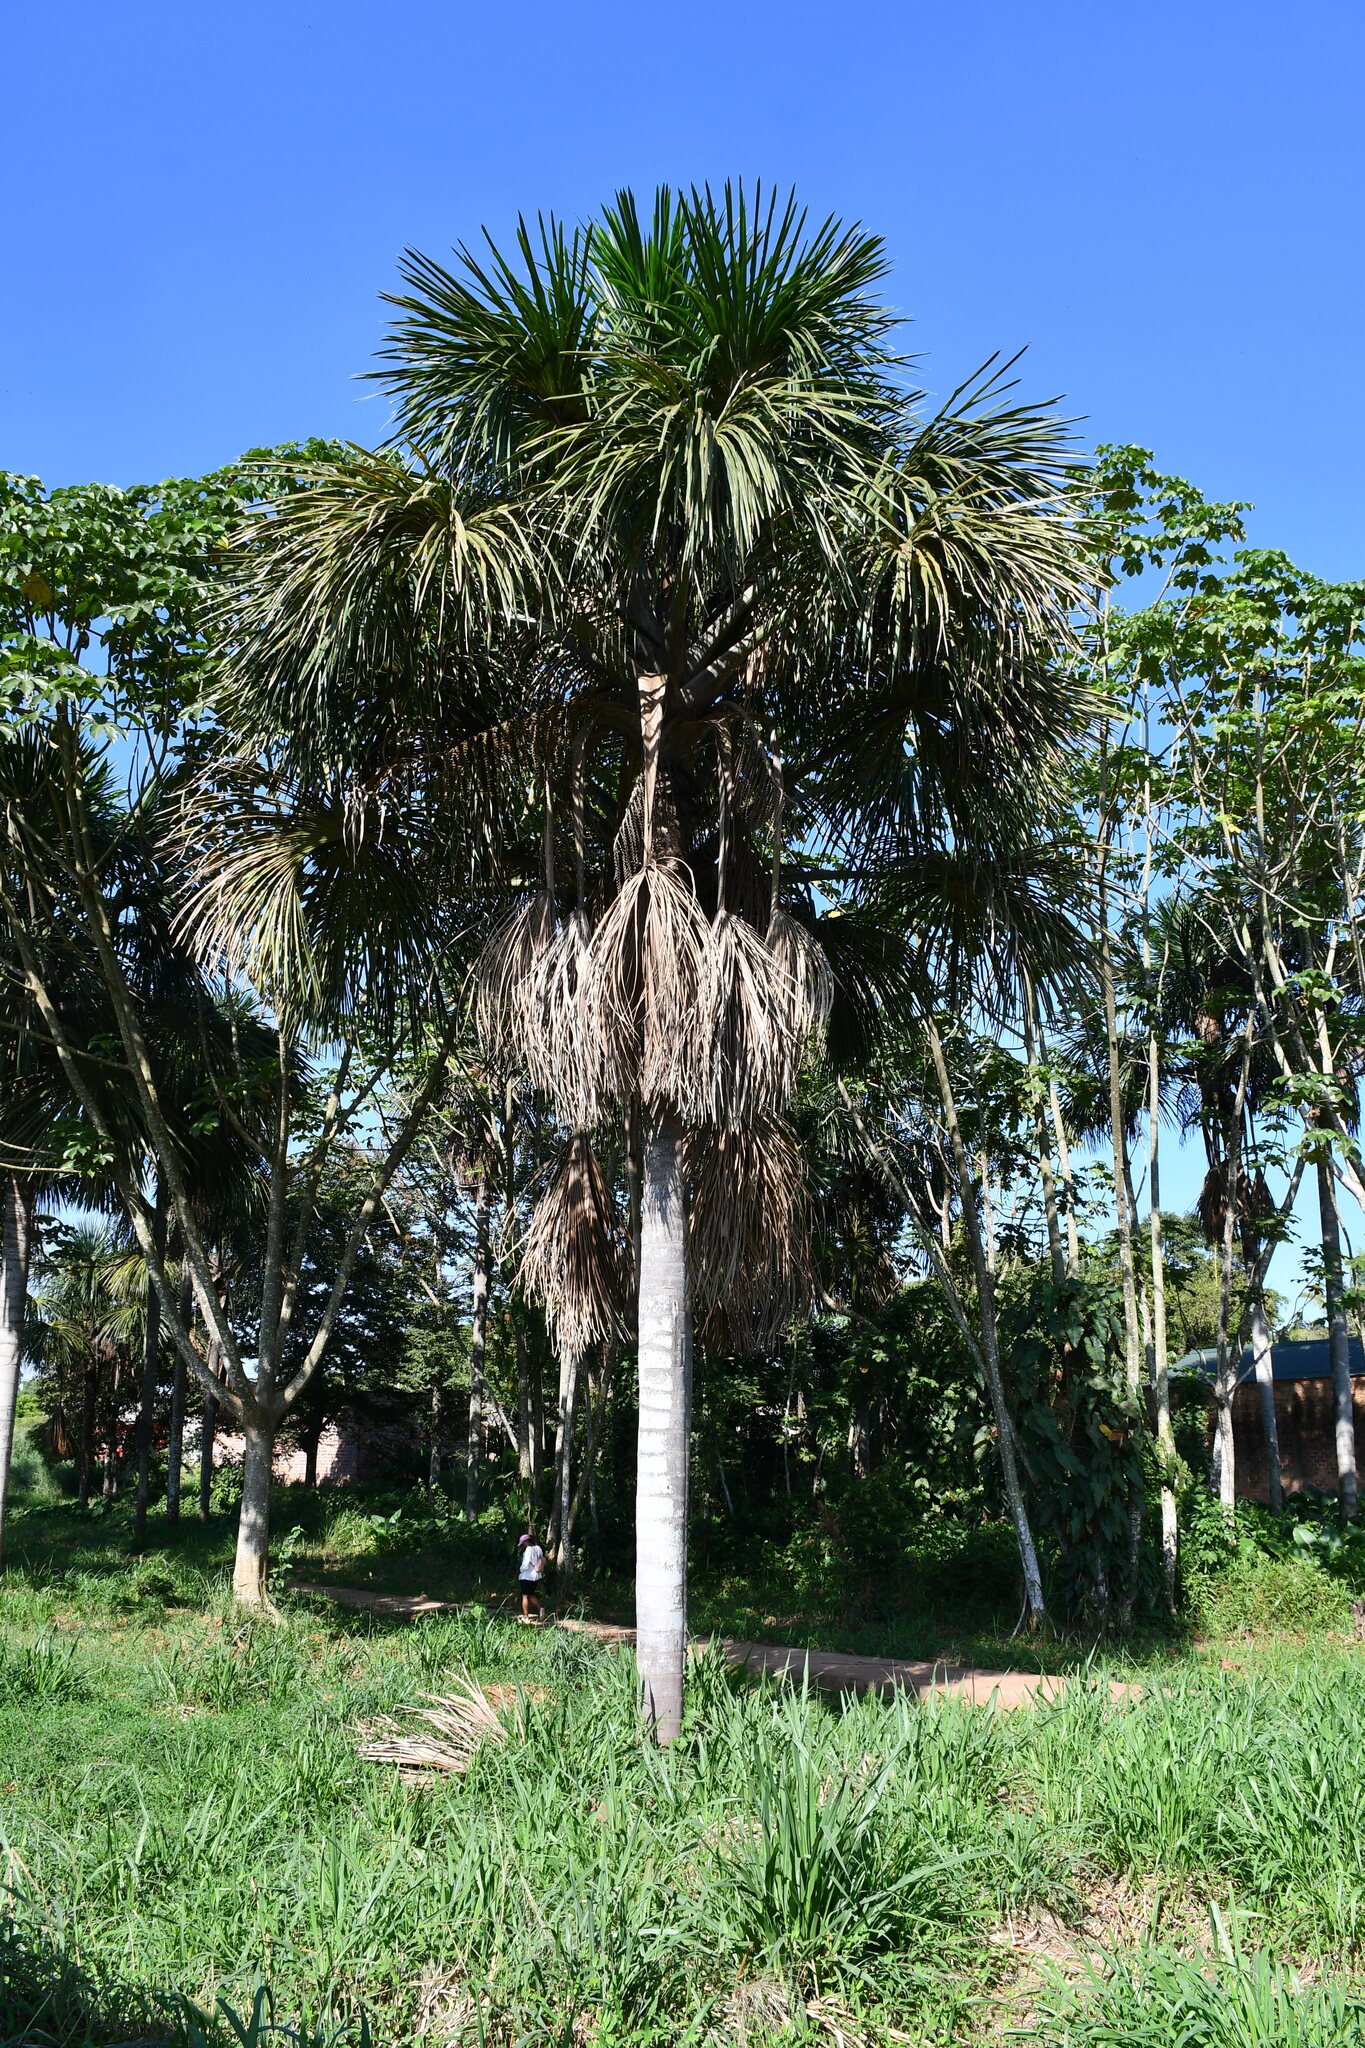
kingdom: Plantae
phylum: Tracheophyta
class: Liliopsida
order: Arecales
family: Arecaceae
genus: Mauritia
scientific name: Mauritia flexuosa
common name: Tree-of-life
